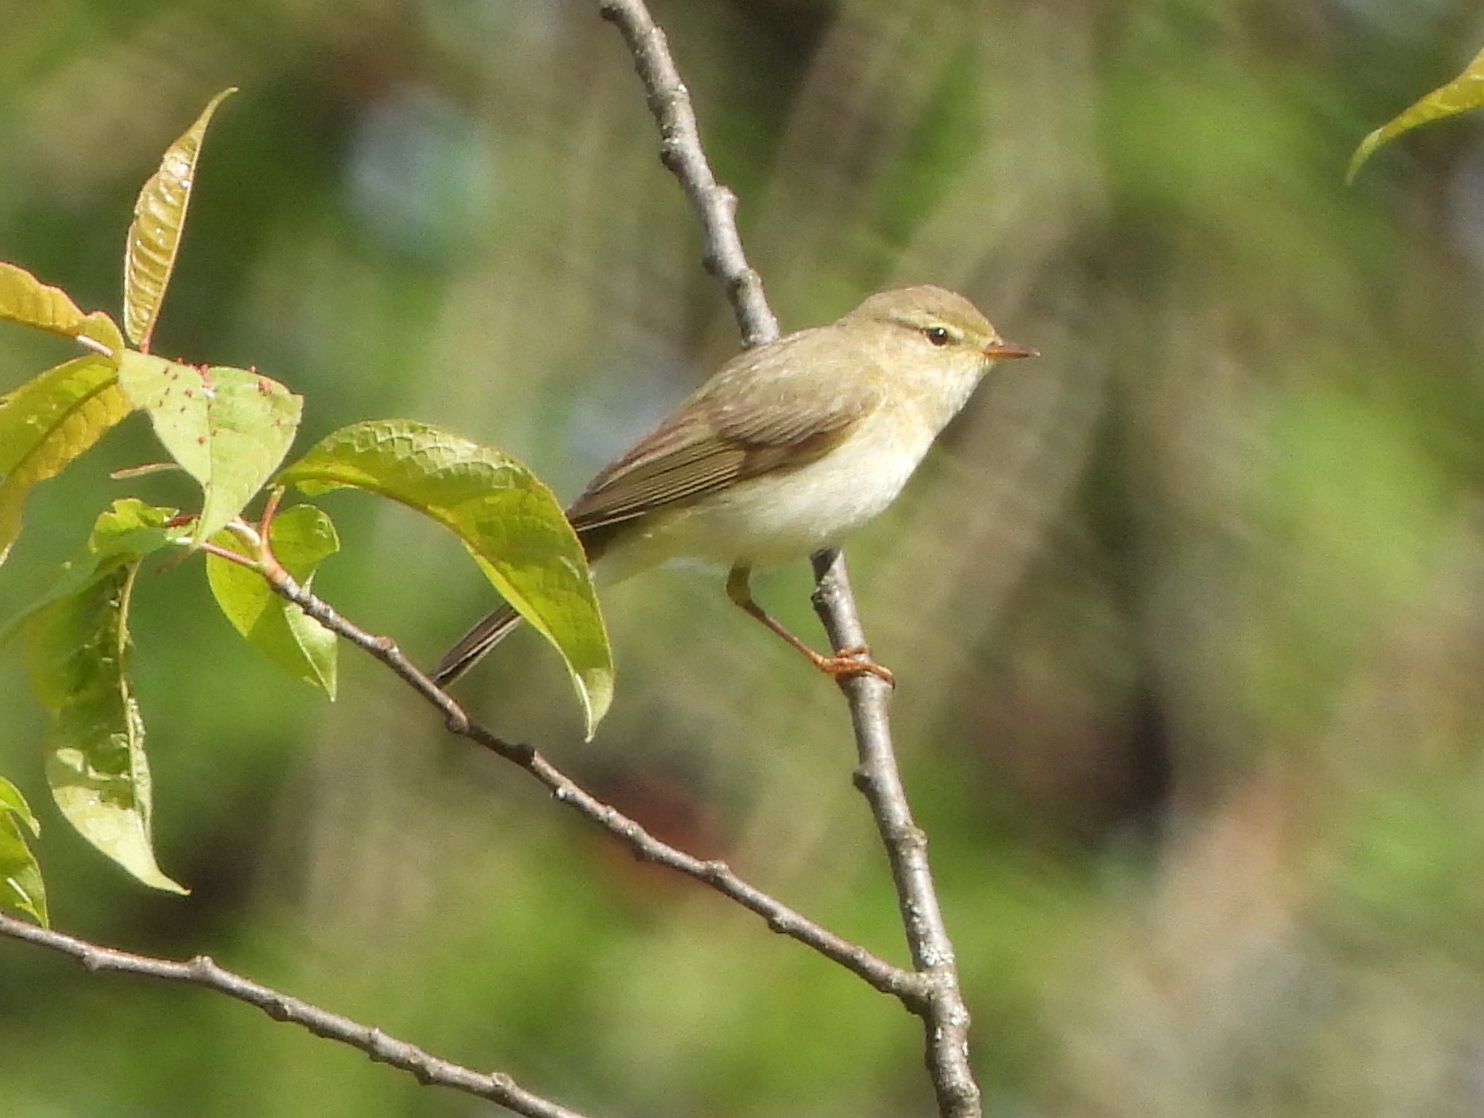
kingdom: Animalia
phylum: Chordata
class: Aves
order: Passeriformes
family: Phylloscopidae
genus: Phylloscopus
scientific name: Phylloscopus trochilus
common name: Willow warbler
